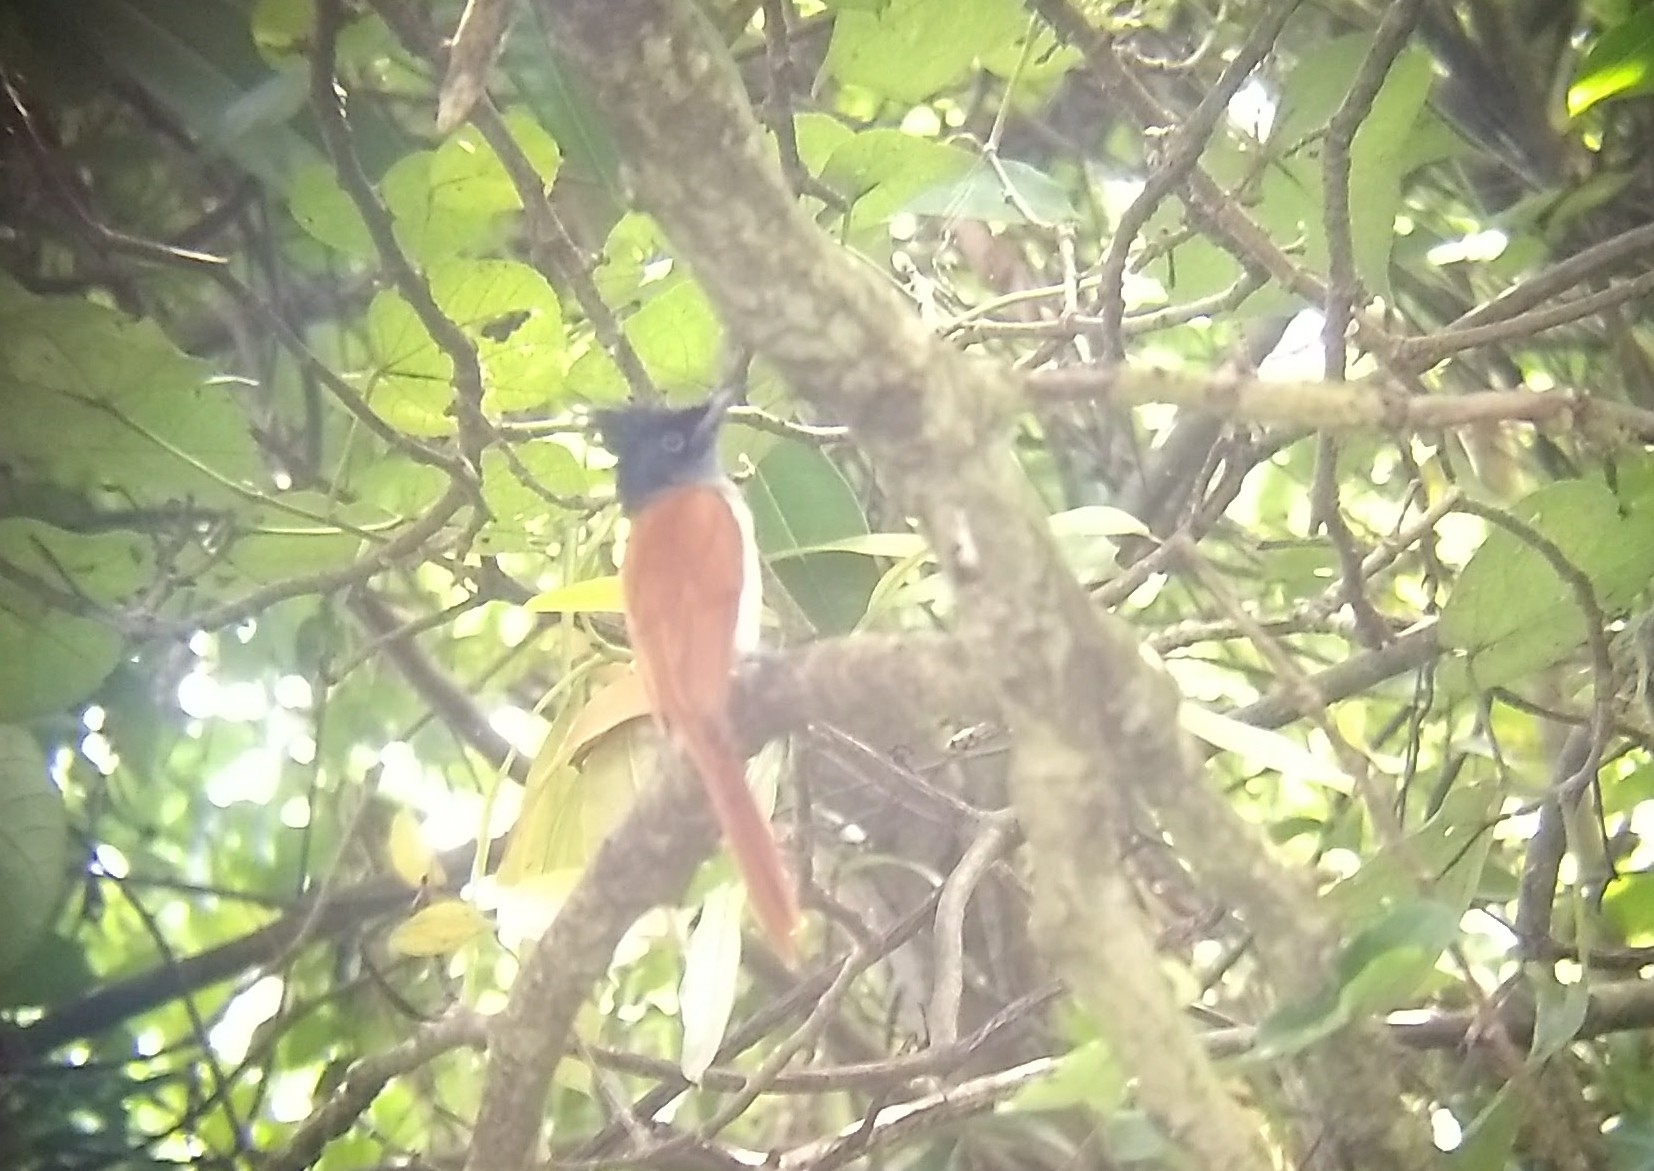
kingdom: Animalia
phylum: Chordata
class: Aves
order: Passeriformes
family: Monarchidae
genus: Terpsiphone
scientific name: Terpsiphone paradisi
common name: Indian paradise flycatcher
